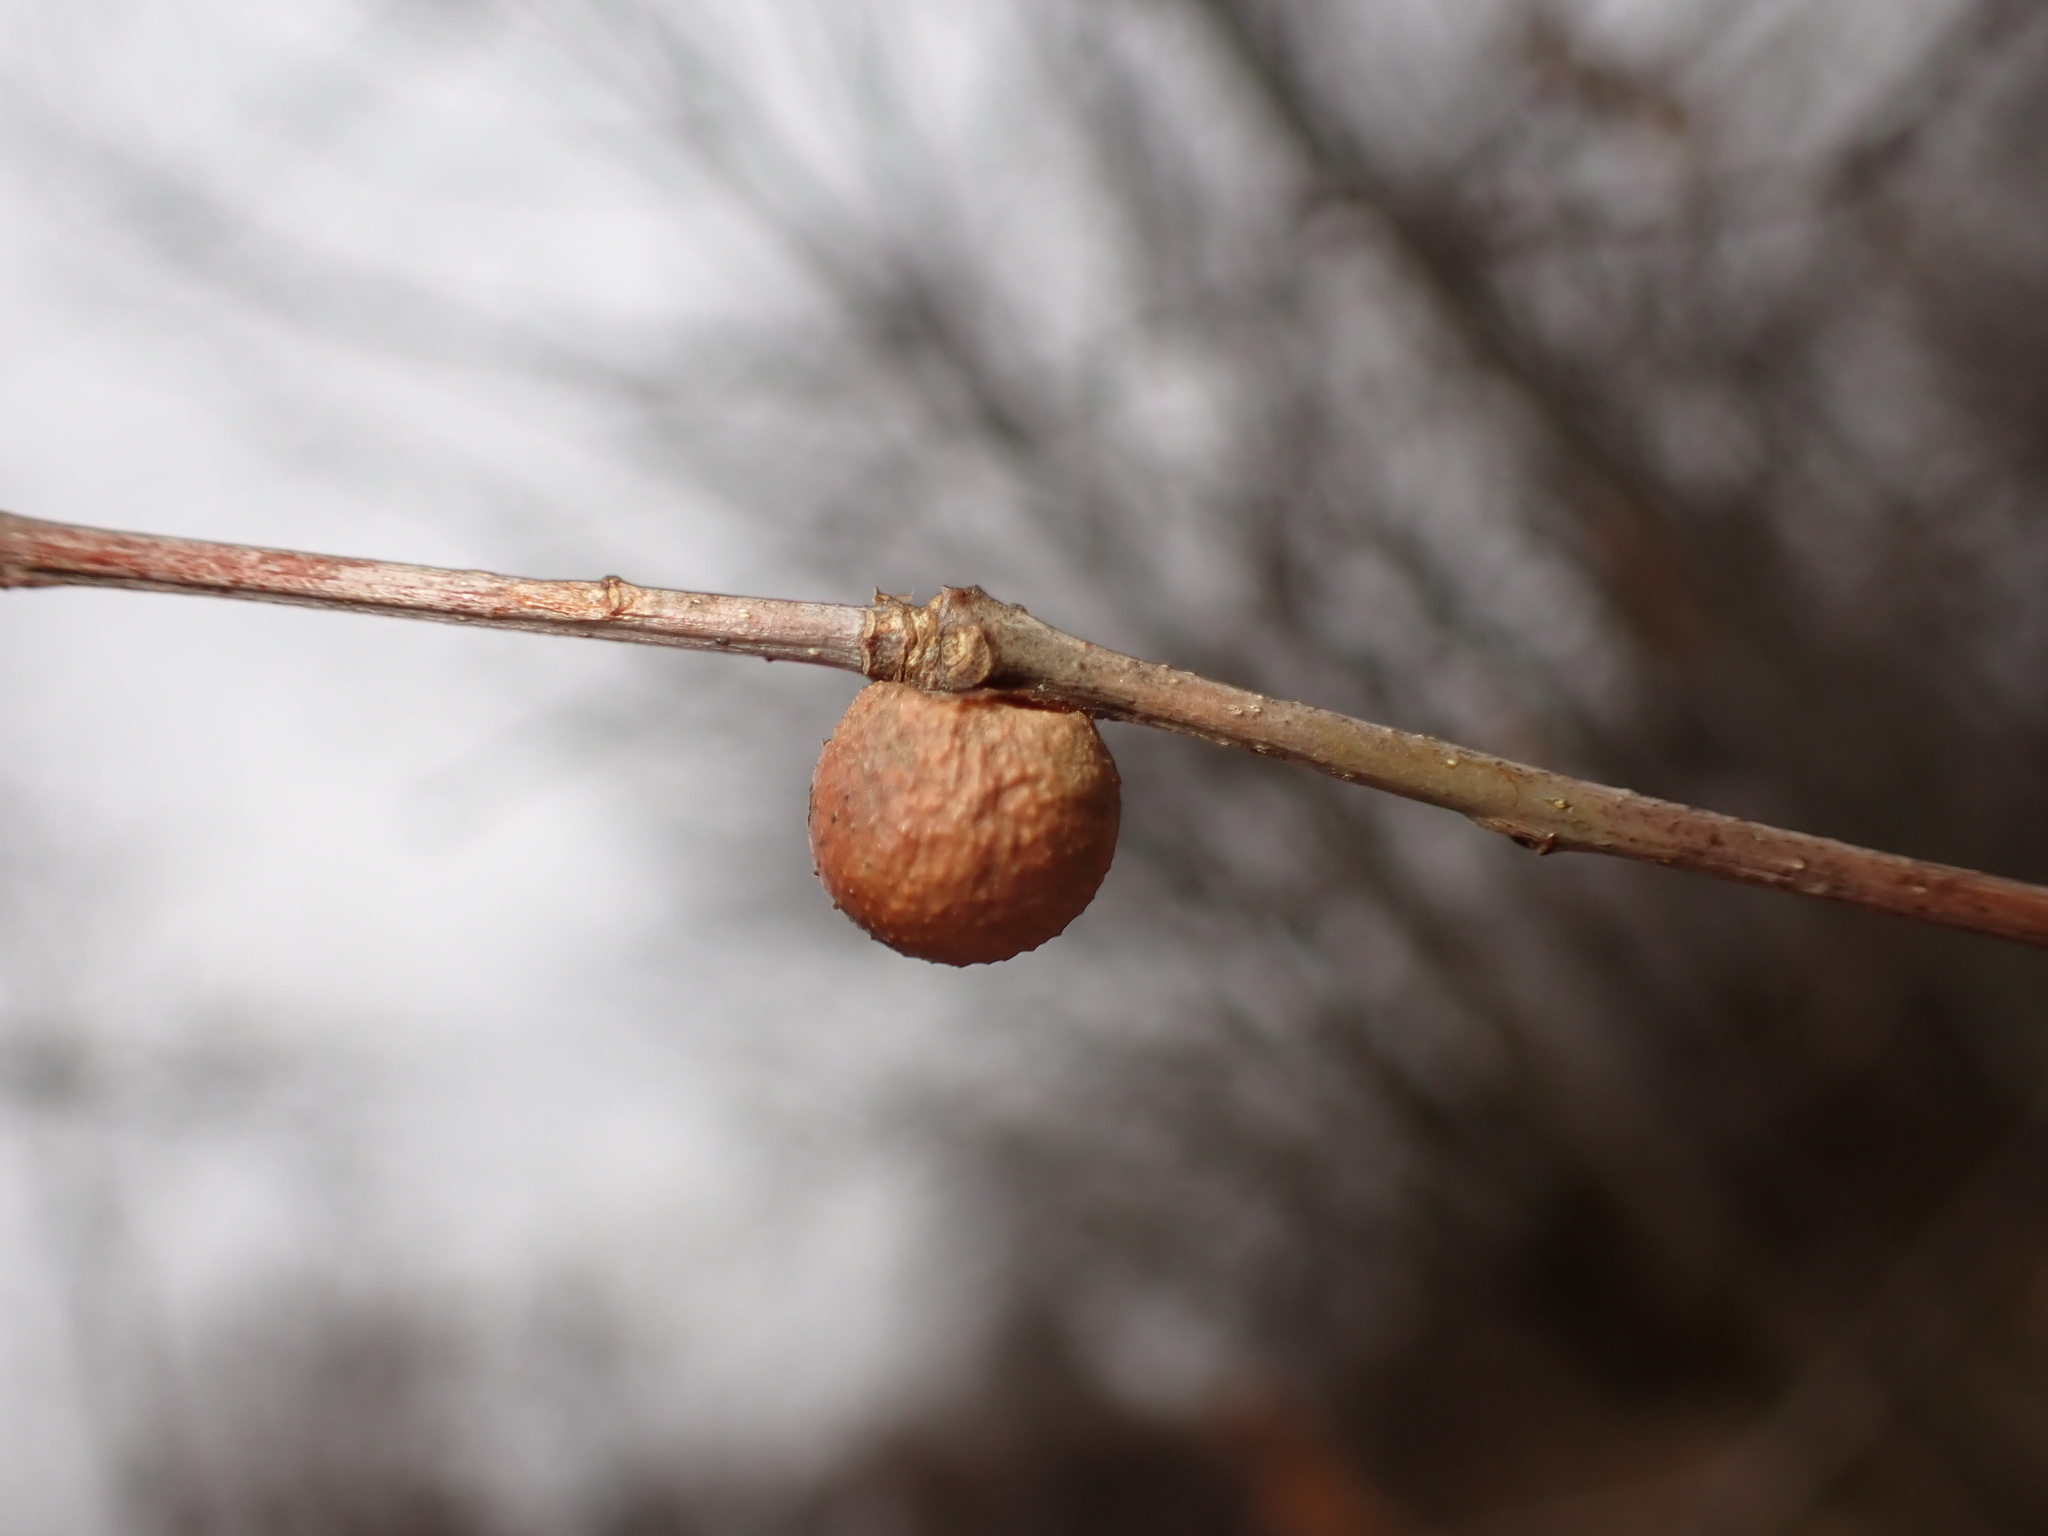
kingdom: Animalia
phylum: Arthropoda
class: Insecta
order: Hymenoptera
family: Cynipidae
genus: Disholcaspis
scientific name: Disholcaspis quercusglobulus
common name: Round bullet gall wasp
